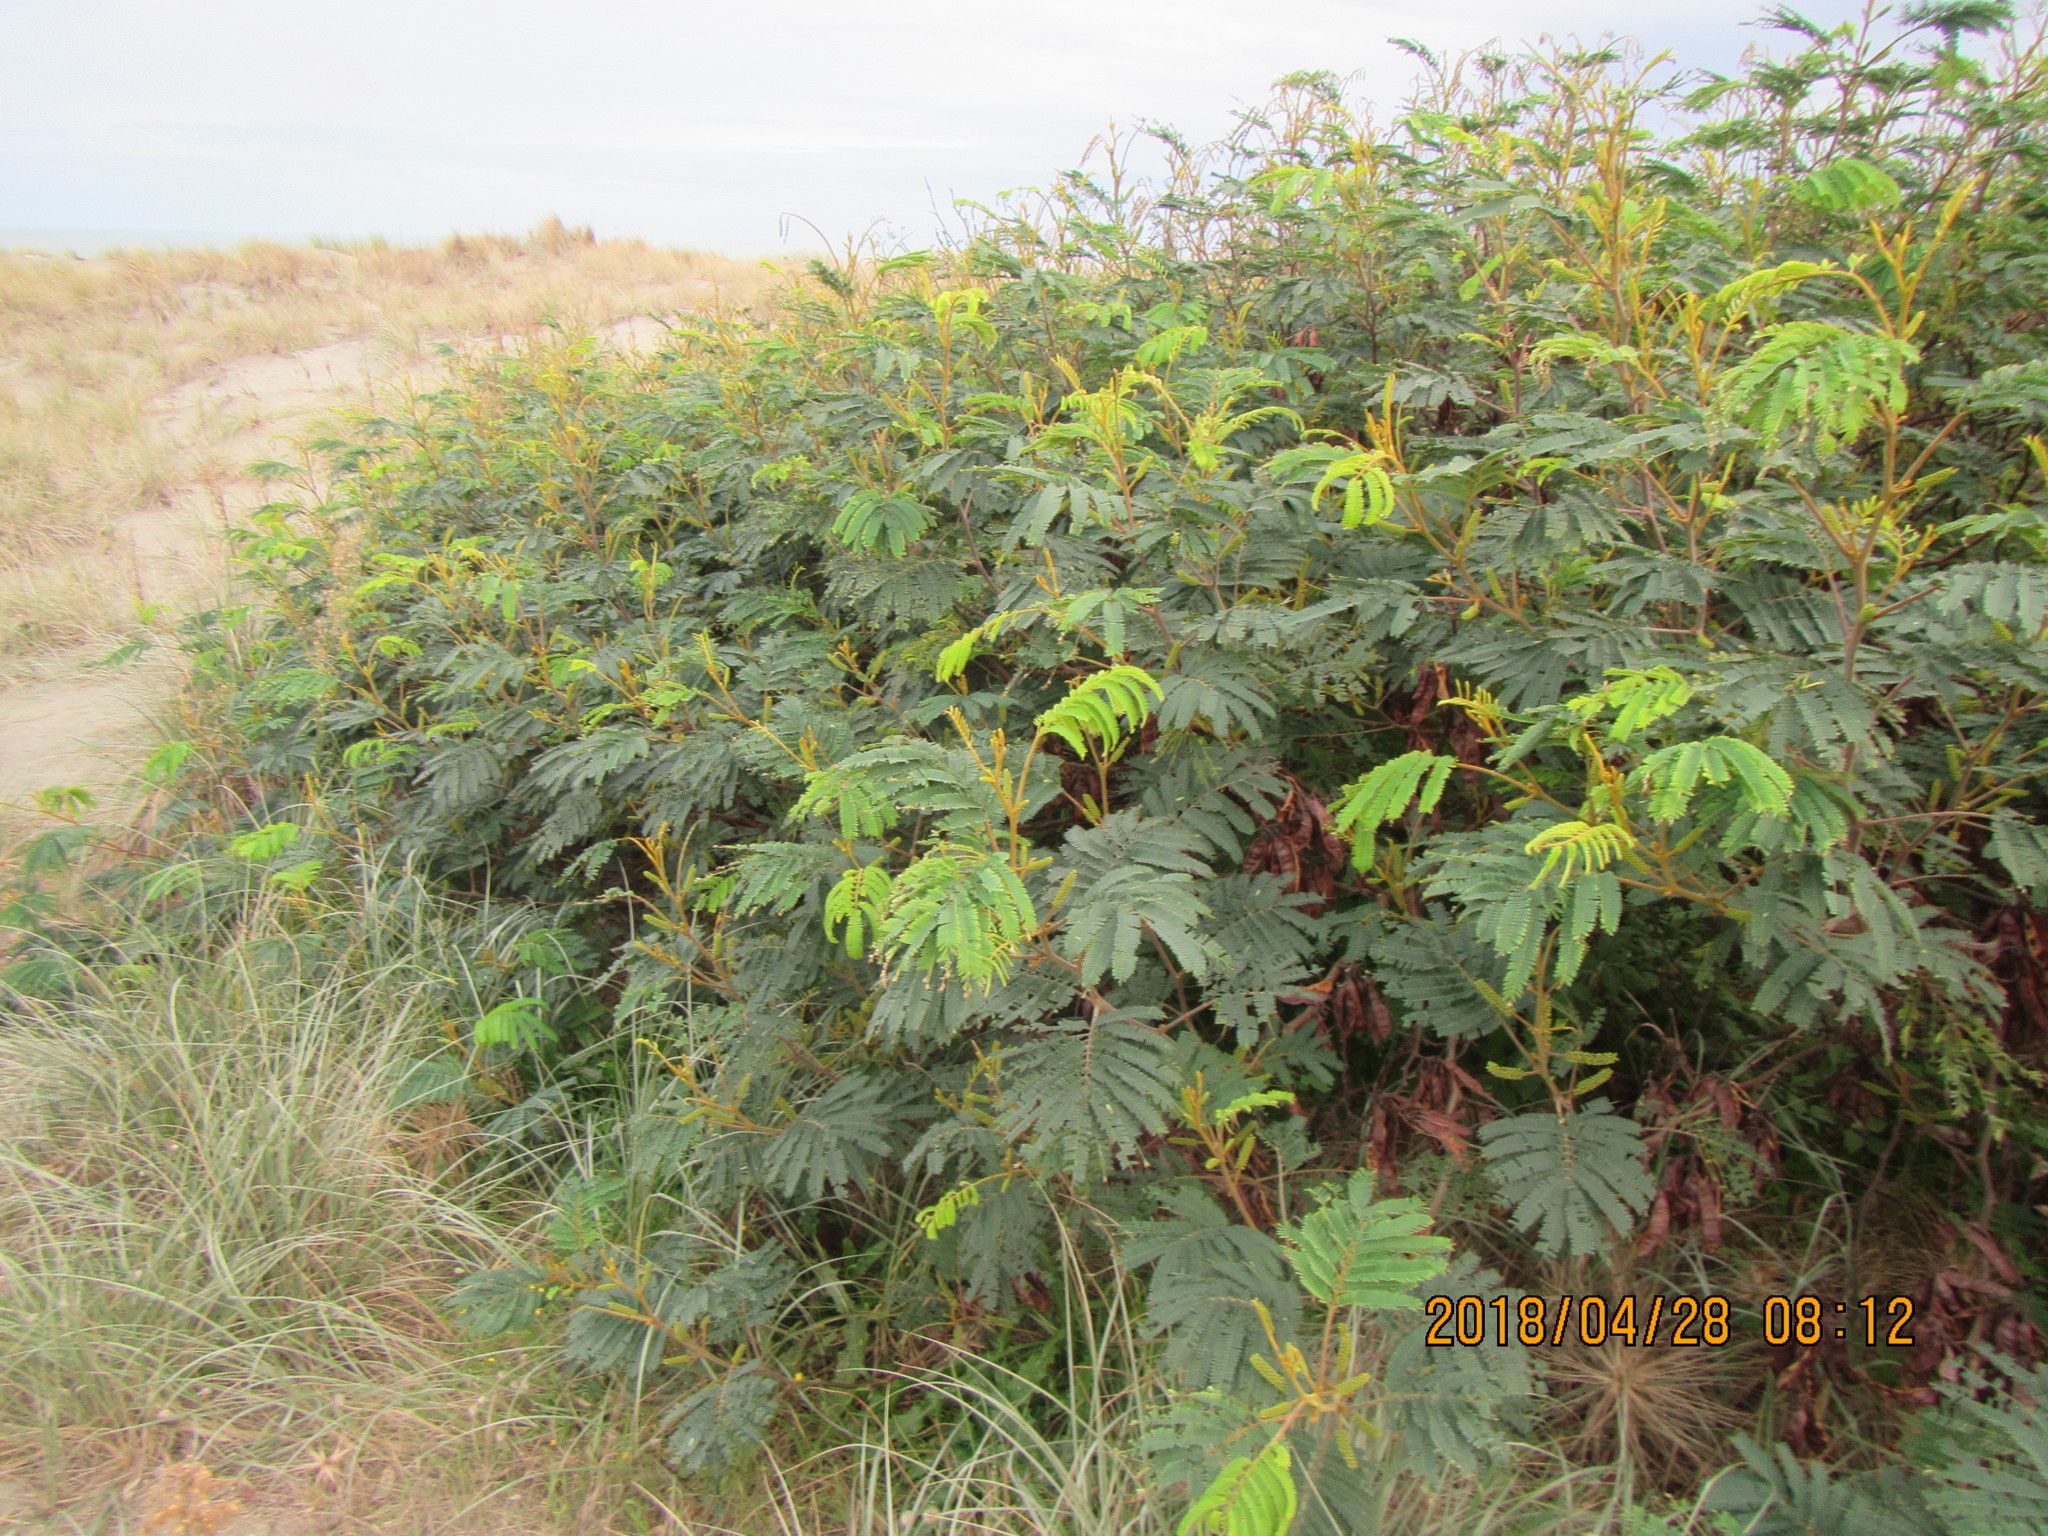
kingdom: Plantae
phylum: Tracheophyta
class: Magnoliopsida
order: Fabales
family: Fabaceae
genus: Paraserianthes
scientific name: Paraserianthes lophantha
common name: Plume albizia
